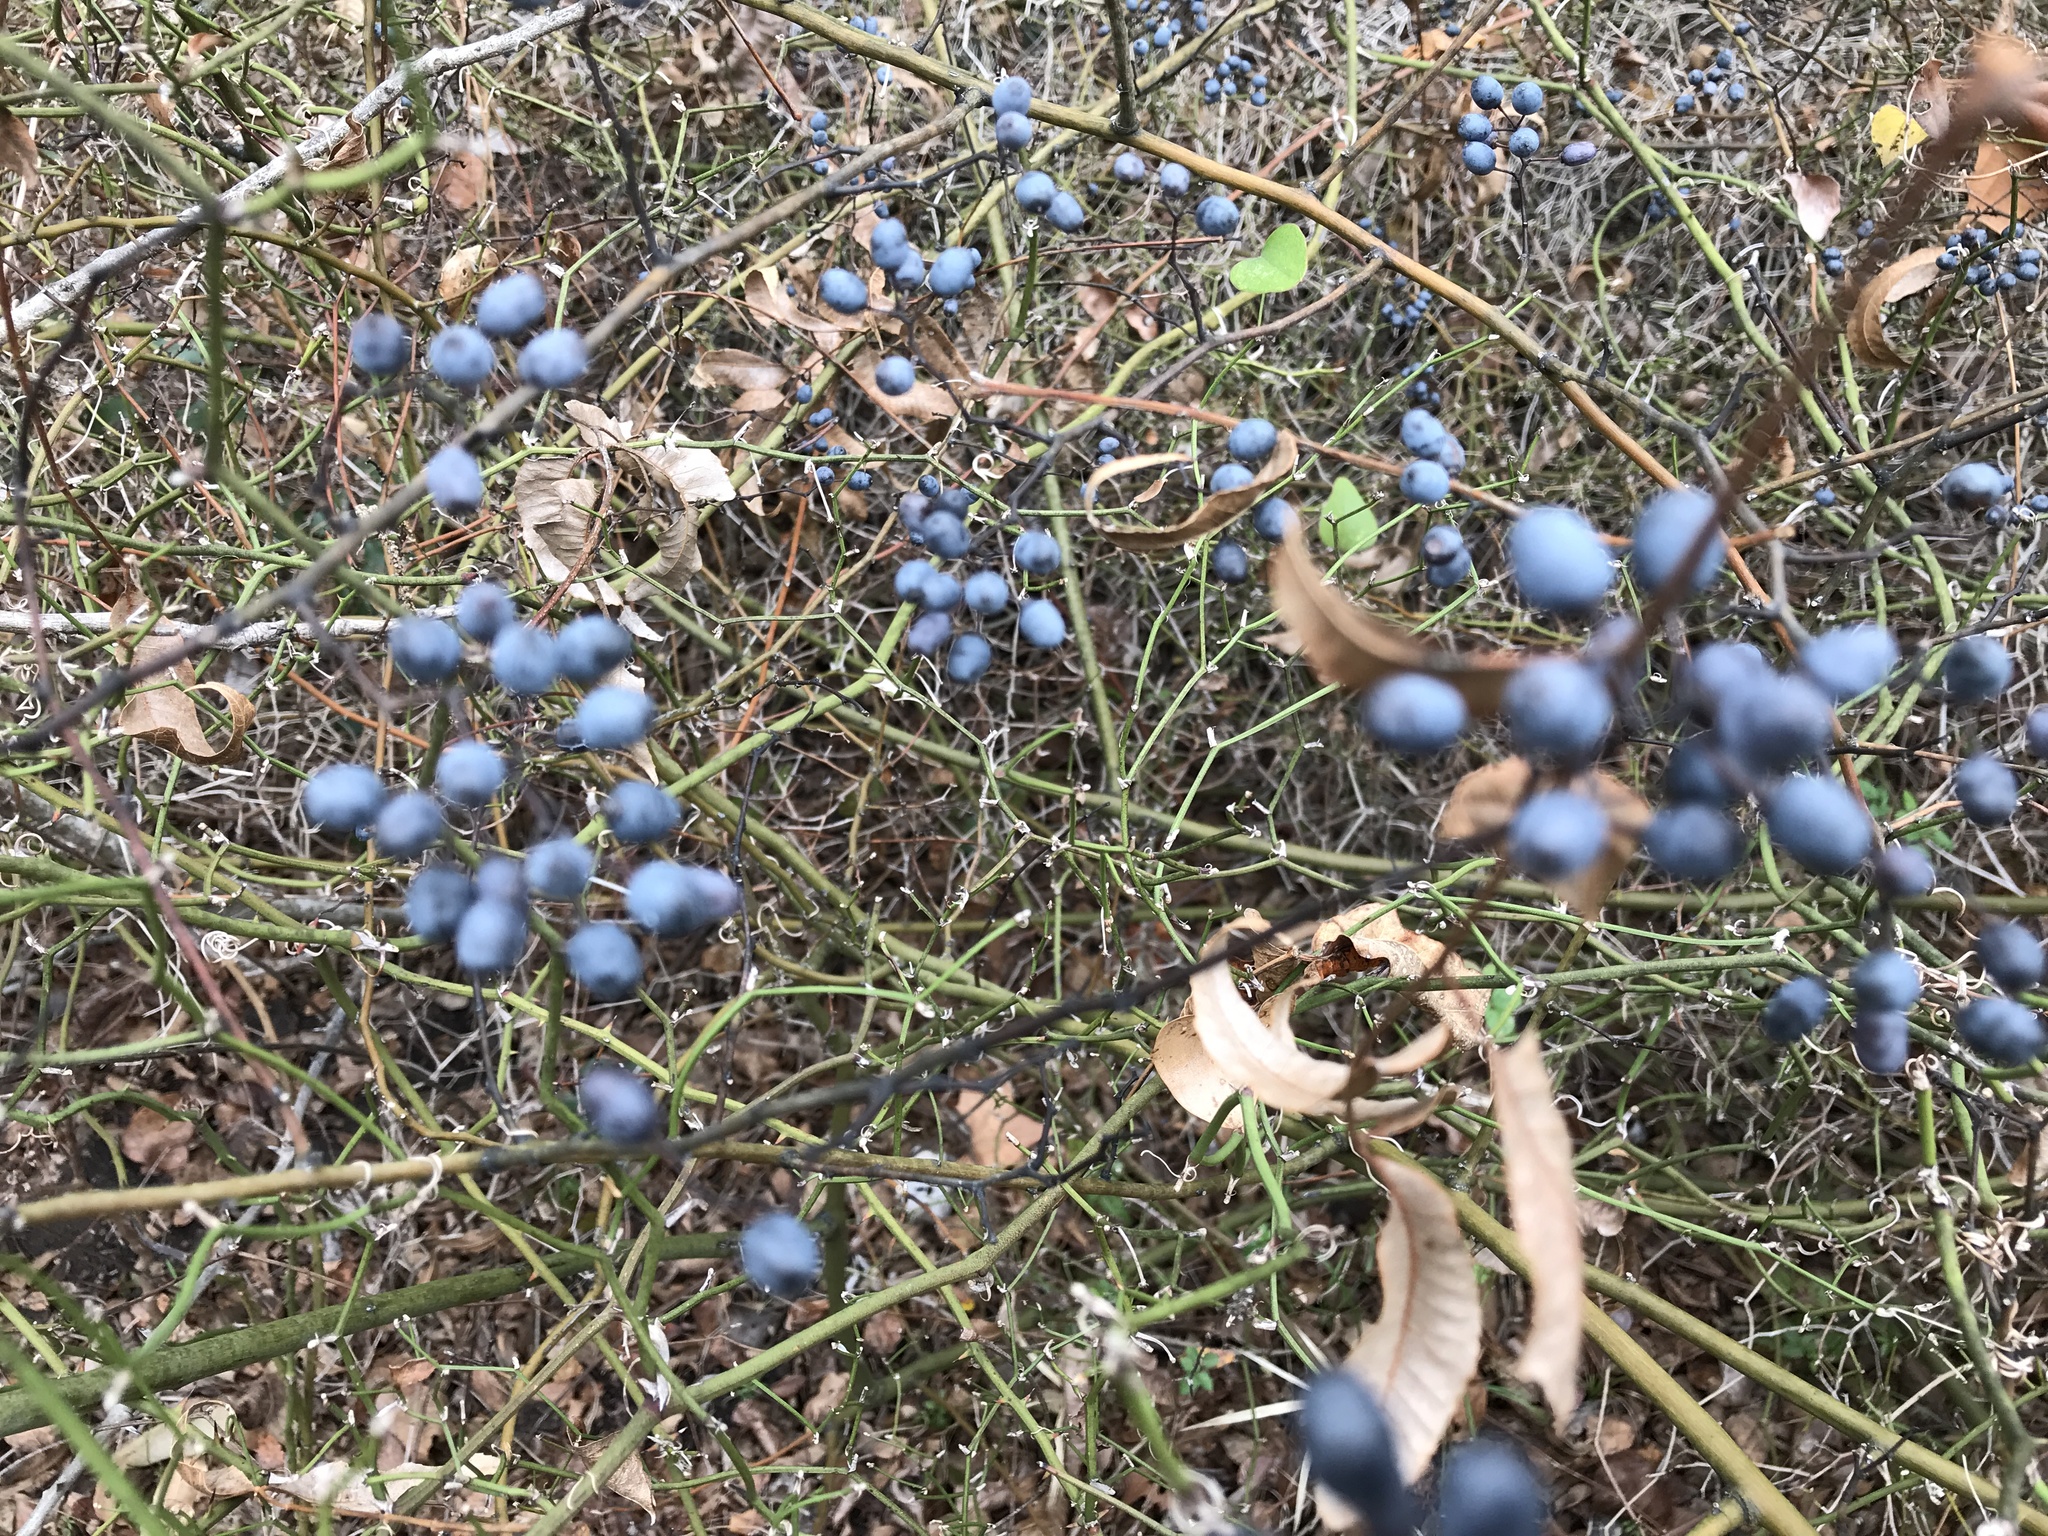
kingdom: Plantae
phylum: Tracheophyta
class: Magnoliopsida
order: Rosales
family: Rhamnaceae
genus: Berchemia
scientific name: Berchemia scandens
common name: Supplejack
